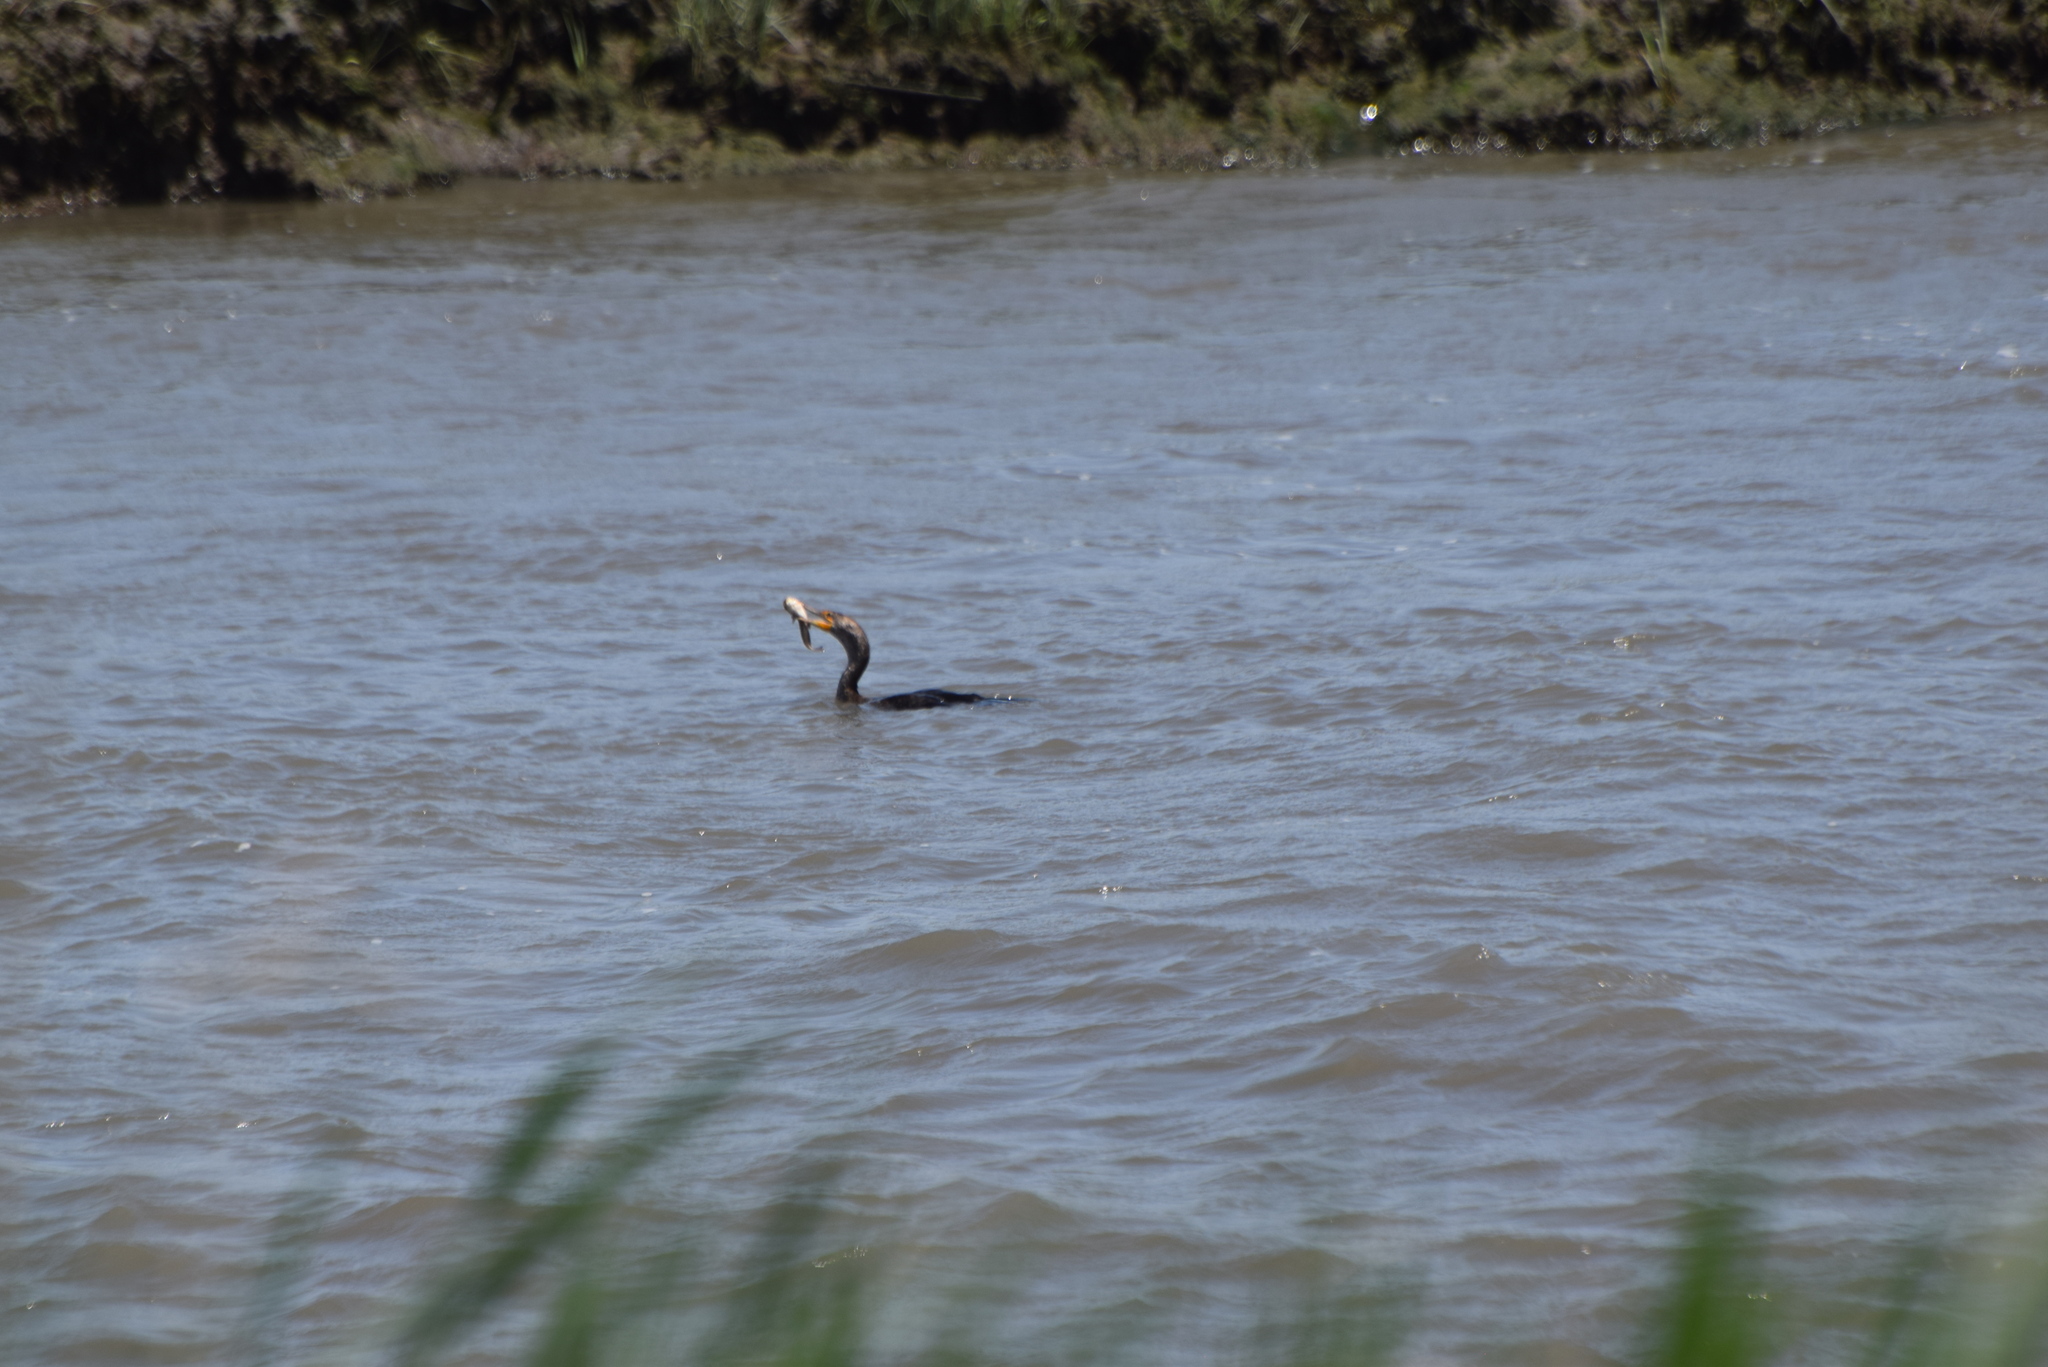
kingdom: Animalia
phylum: Chordata
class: Aves
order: Suliformes
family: Phalacrocoracidae
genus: Phalacrocorax
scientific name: Phalacrocorax auritus
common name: Double-crested cormorant
